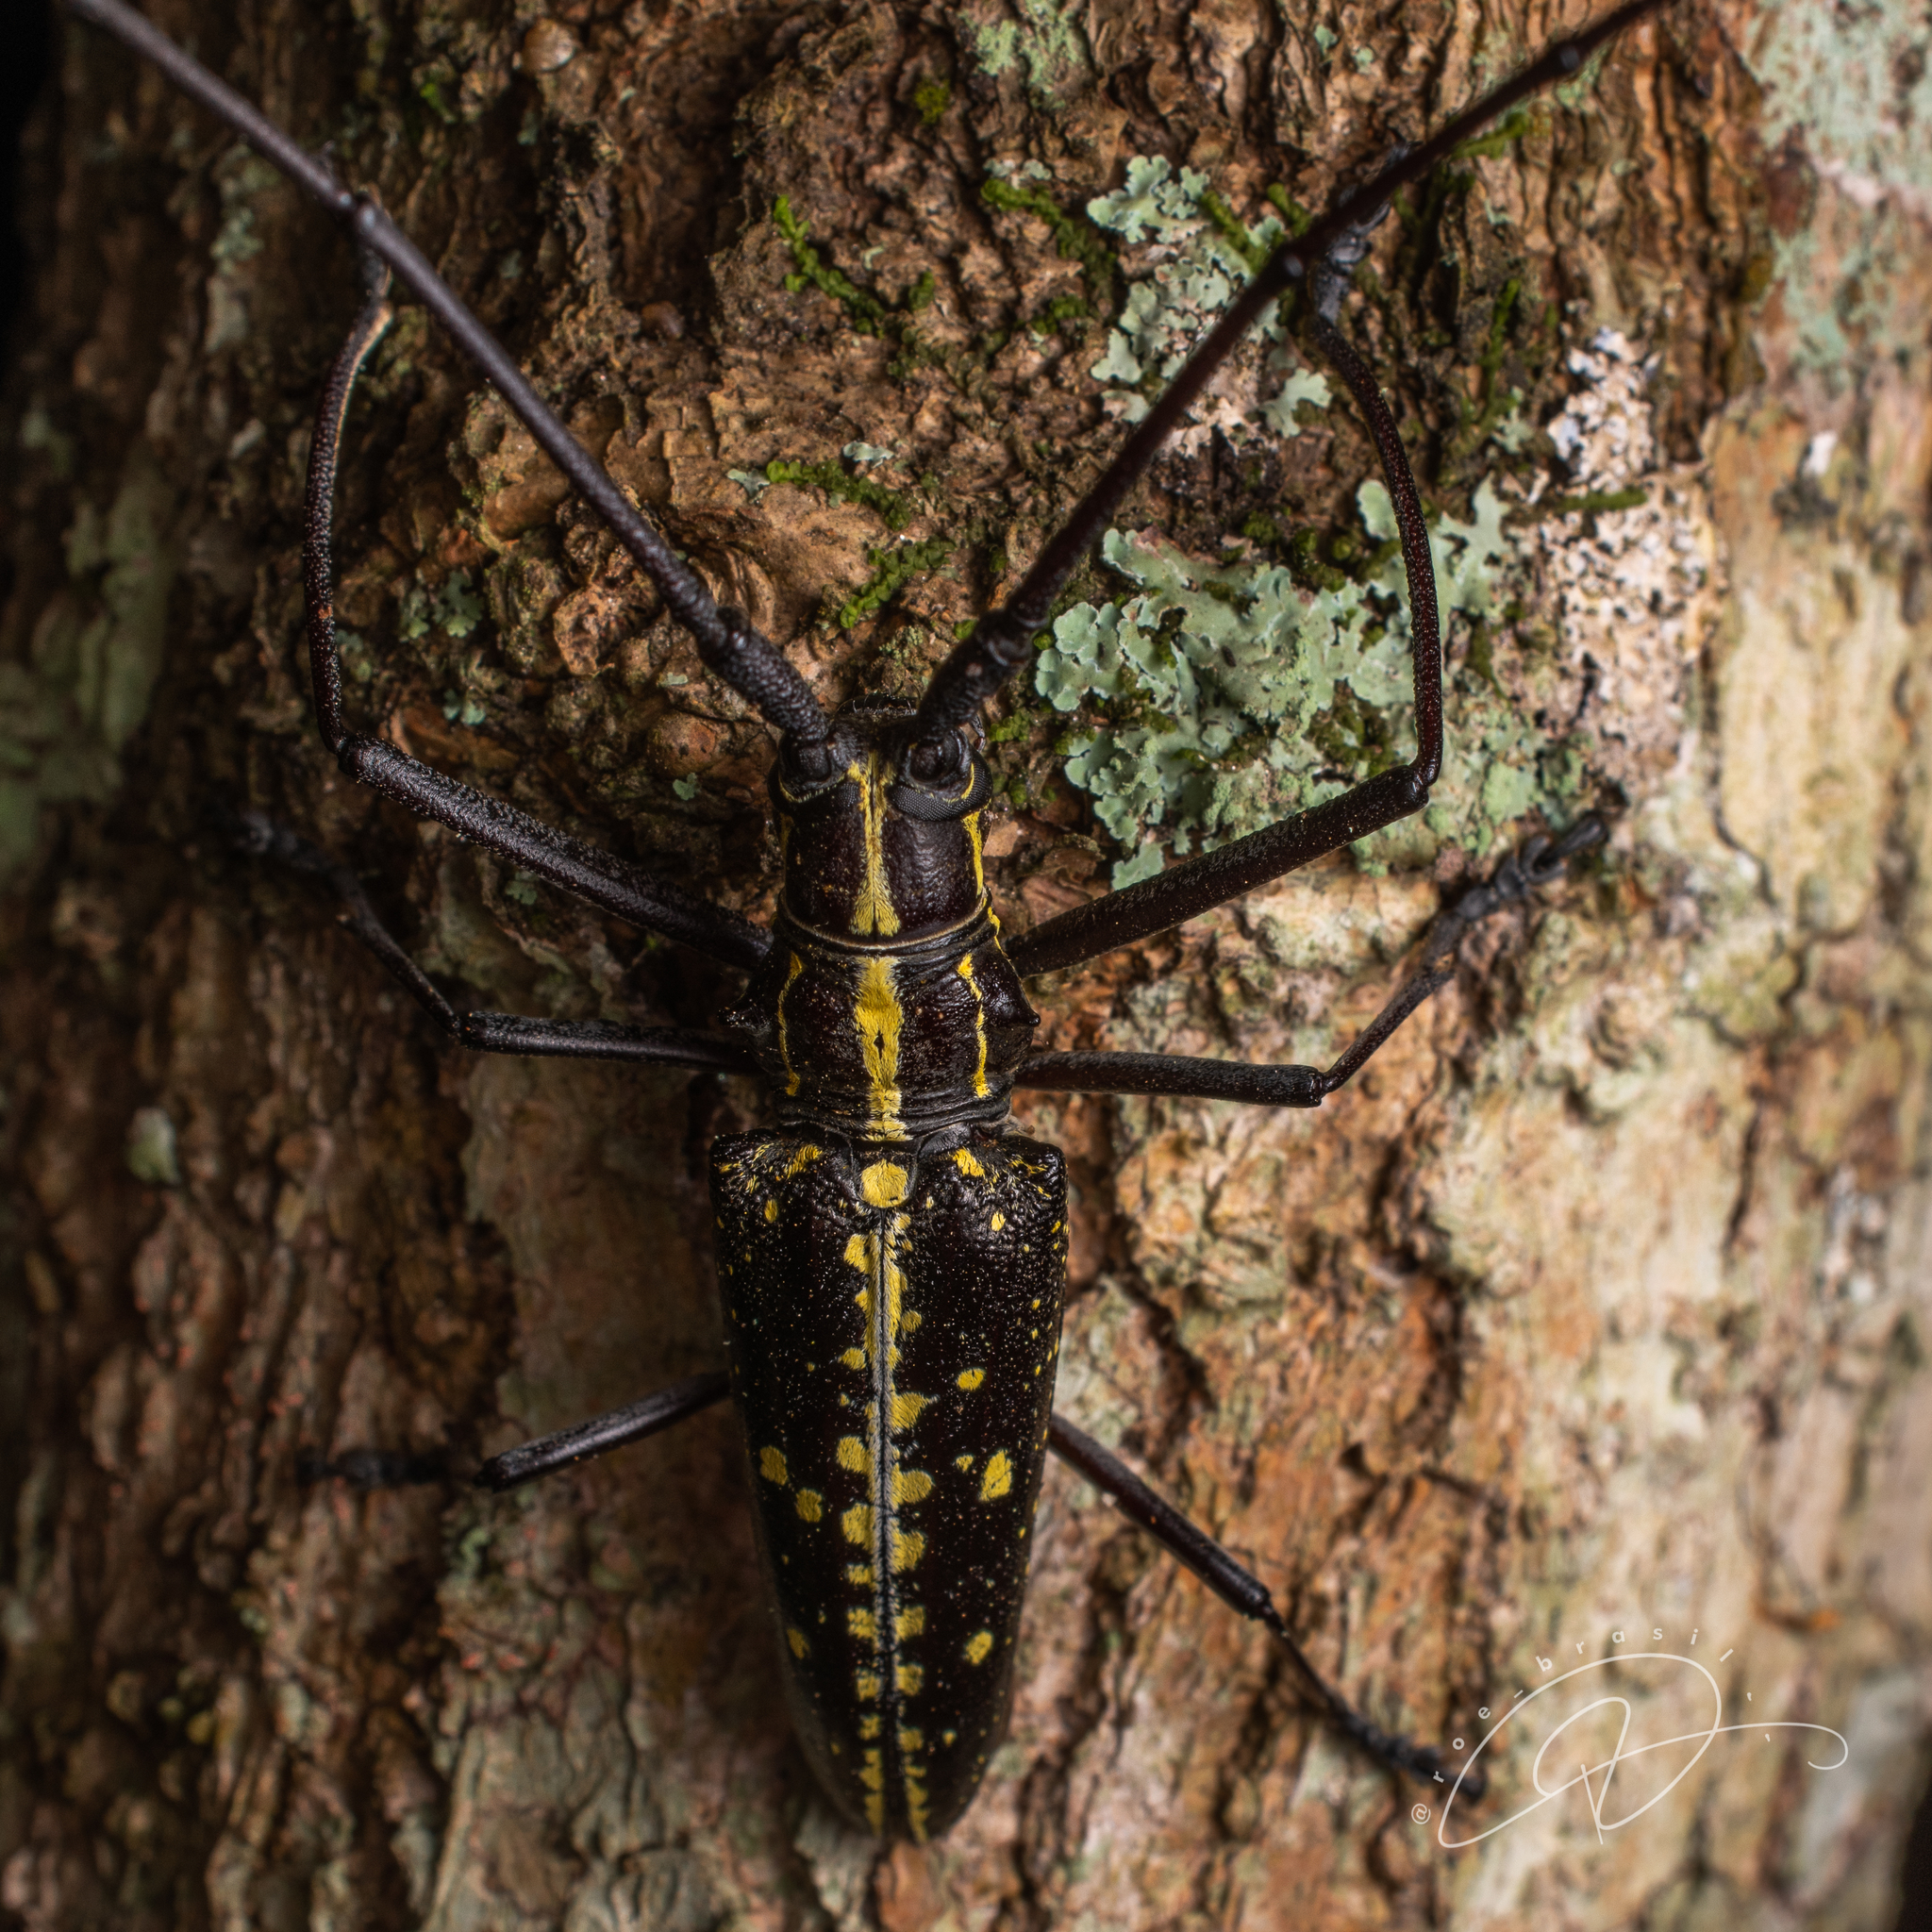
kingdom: Animalia
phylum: Arthropoda
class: Insecta
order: Coleoptera
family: Cerambycidae
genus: Taeniotes
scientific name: Taeniotes amazonum
